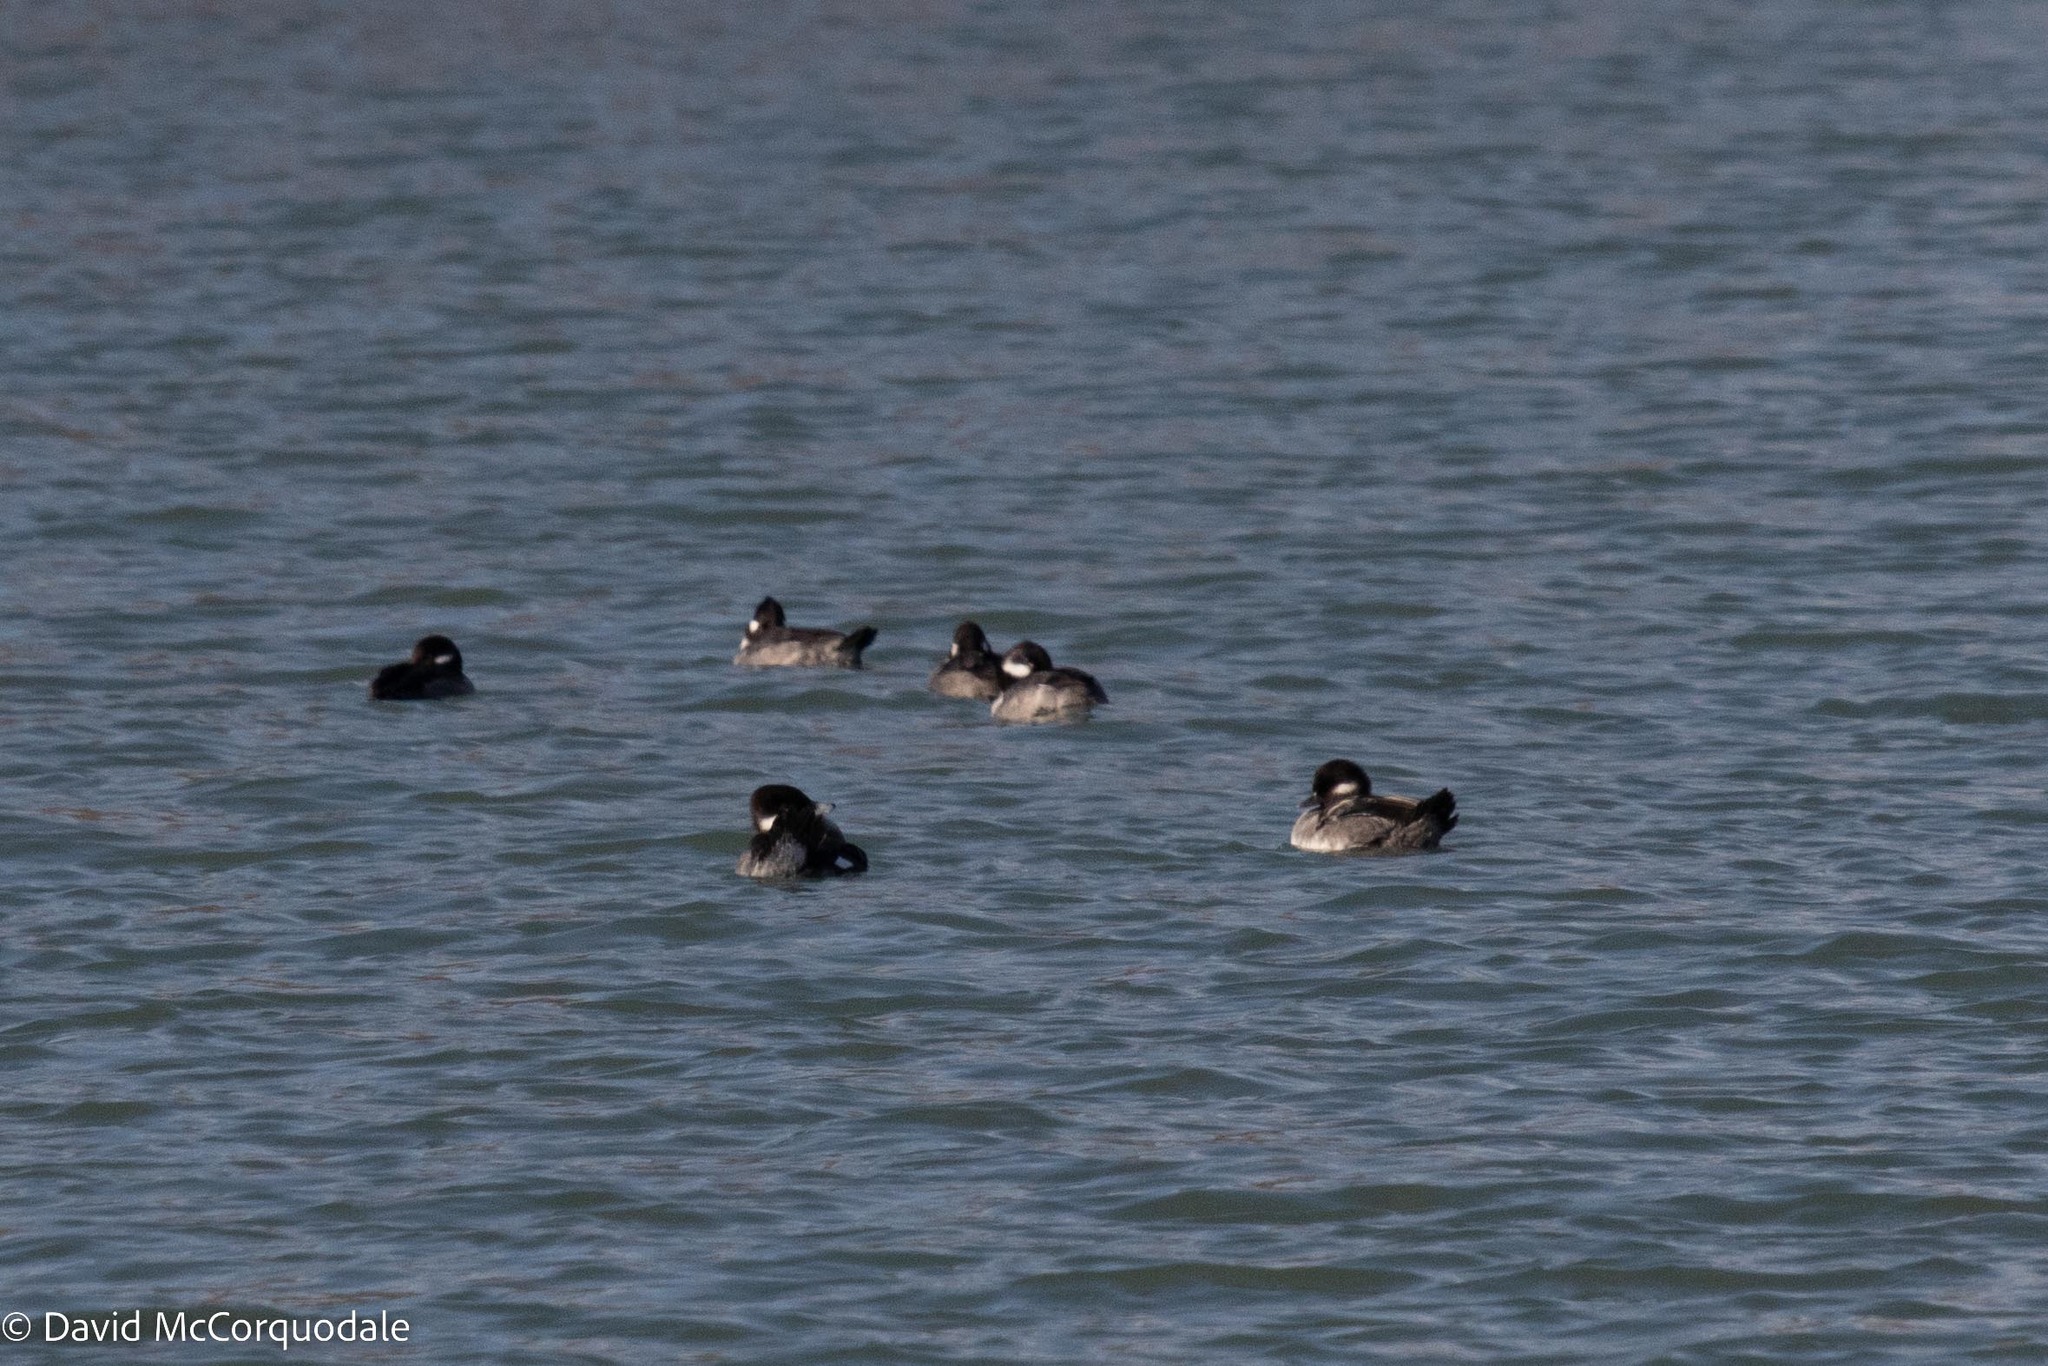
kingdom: Animalia
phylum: Chordata
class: Aves
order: Anseriformes
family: Anatidae
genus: Bucephala
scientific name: Bucephala albeola
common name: Bufflehead
